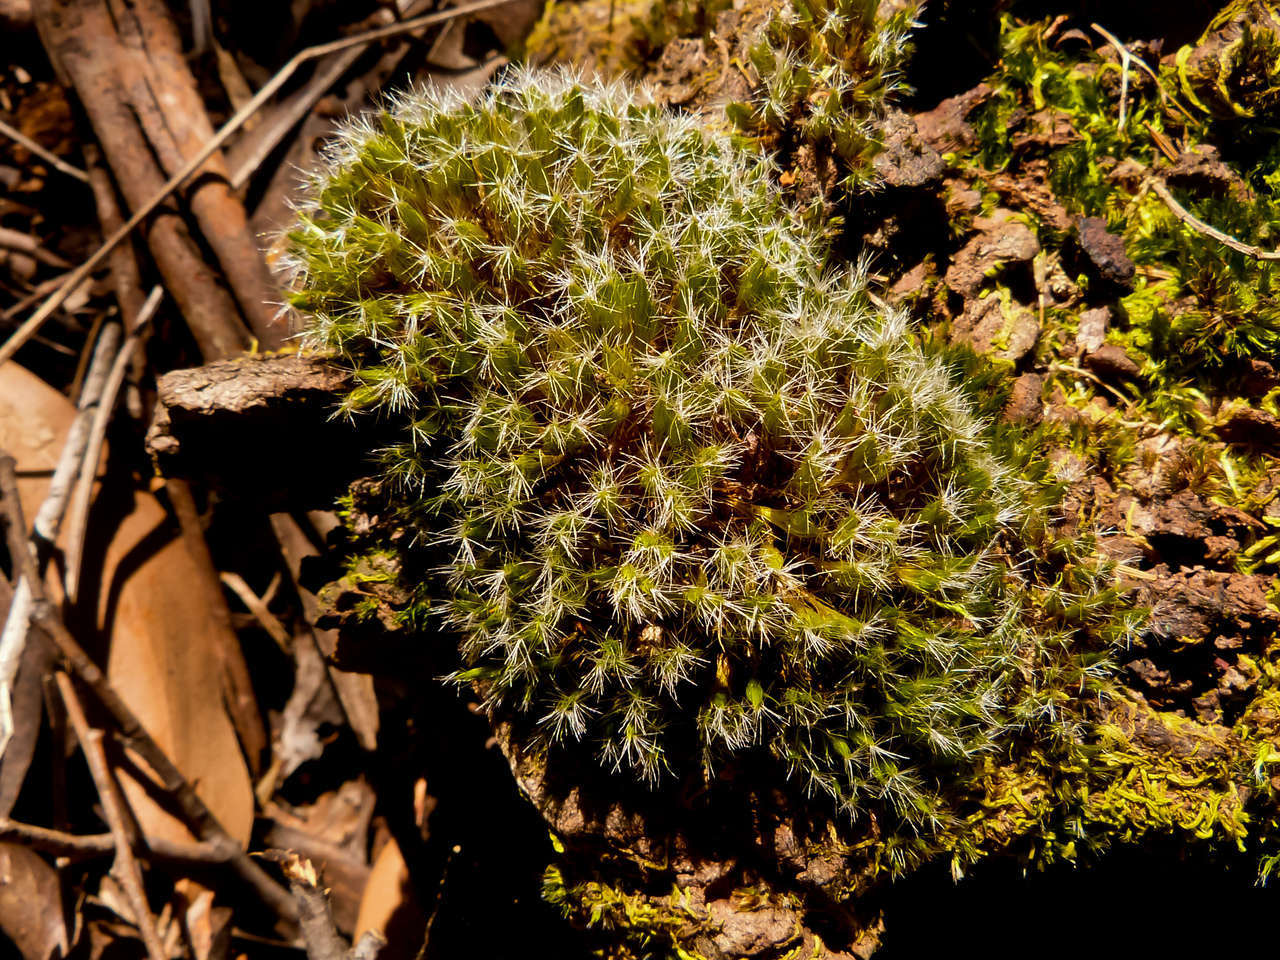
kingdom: Plantae
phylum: Bryophyta
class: Bryopsida
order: Dicranales
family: Leucobryaceae
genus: Campylopus
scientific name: Campylopus introflexus
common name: Heath star moss
